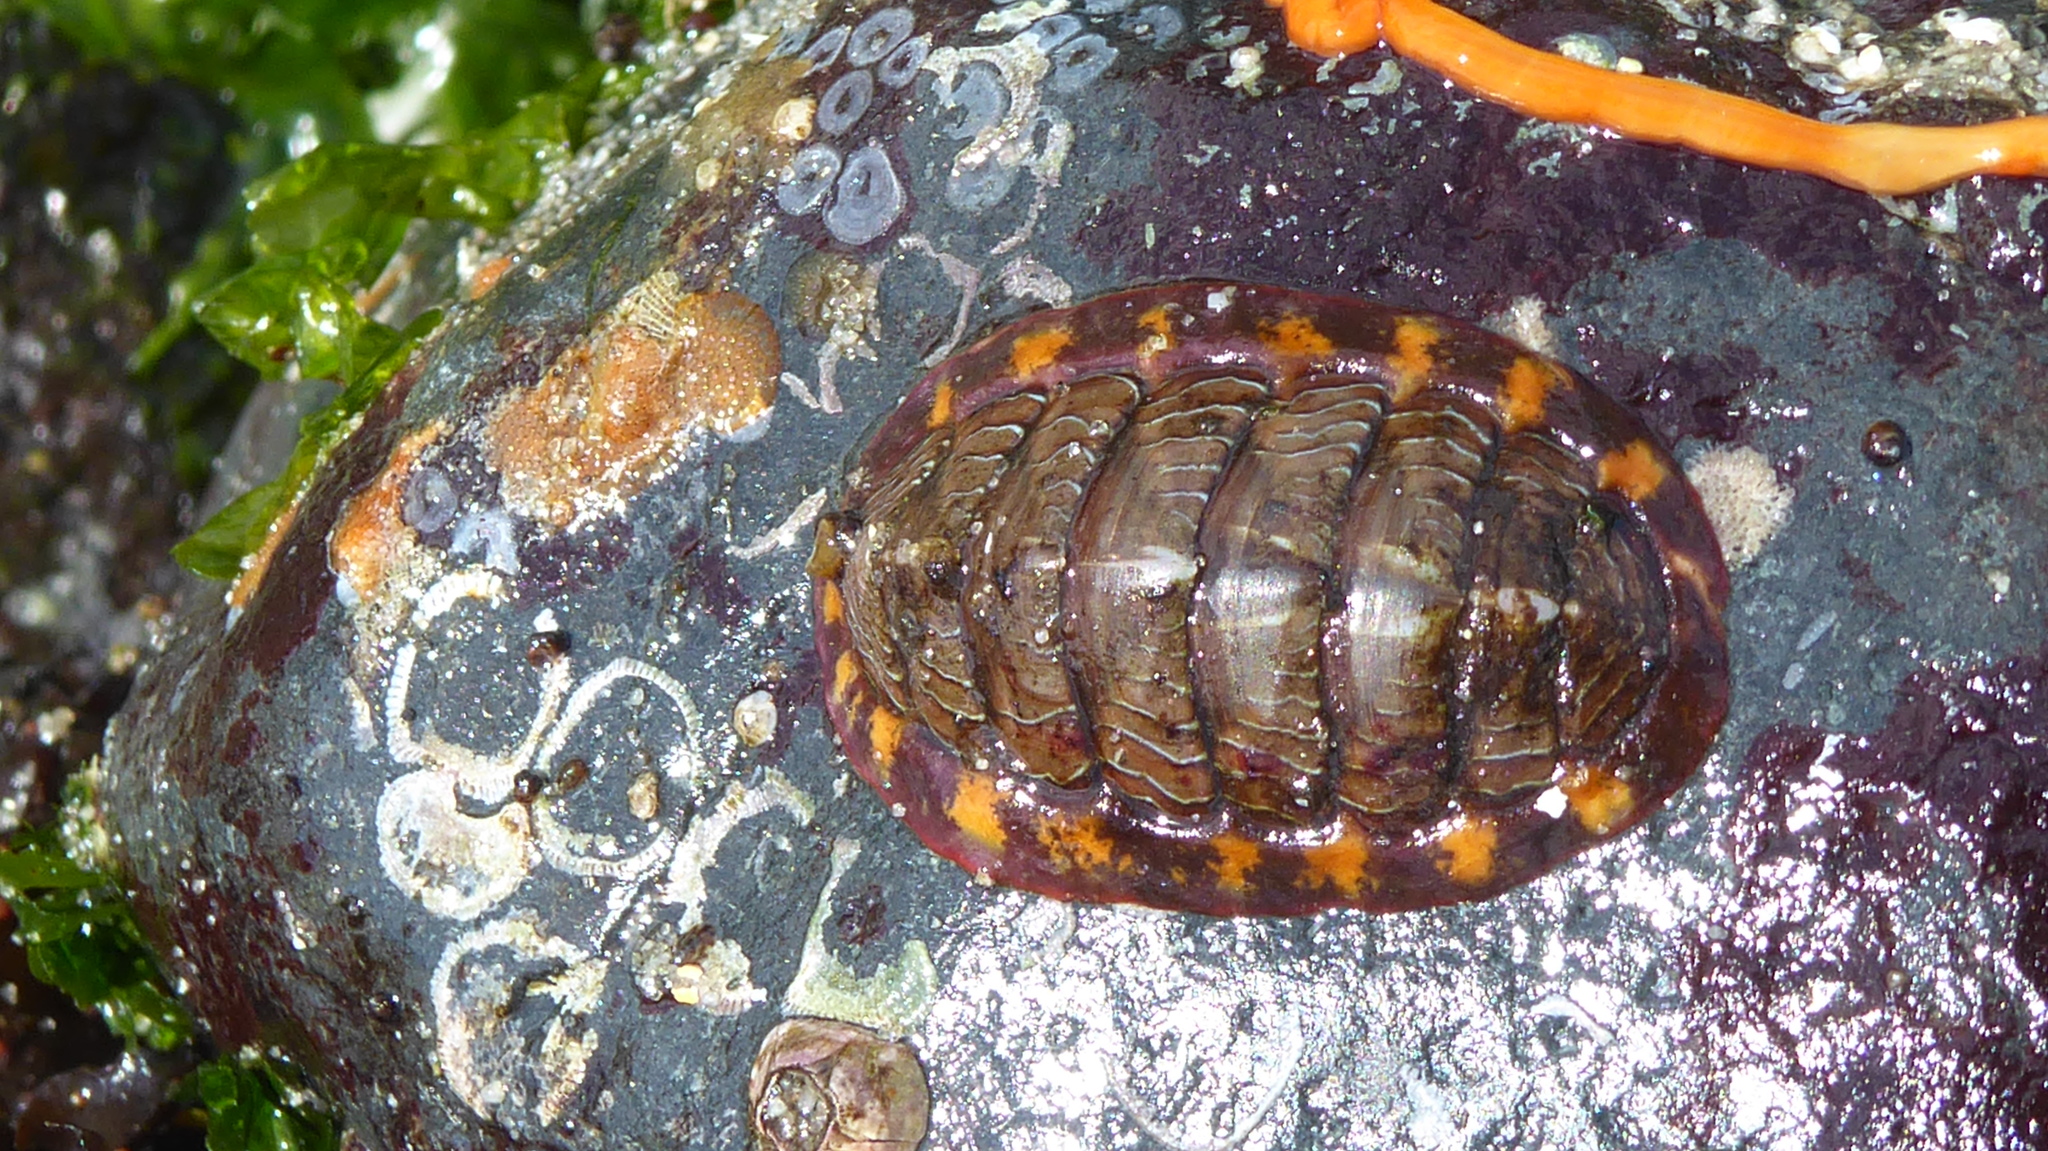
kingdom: Animalia
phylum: Mollusca
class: Polyplacophora
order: Chitonida
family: Tonicellidae
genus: Tonicella
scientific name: Tonicella lineata
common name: Lined chiton
